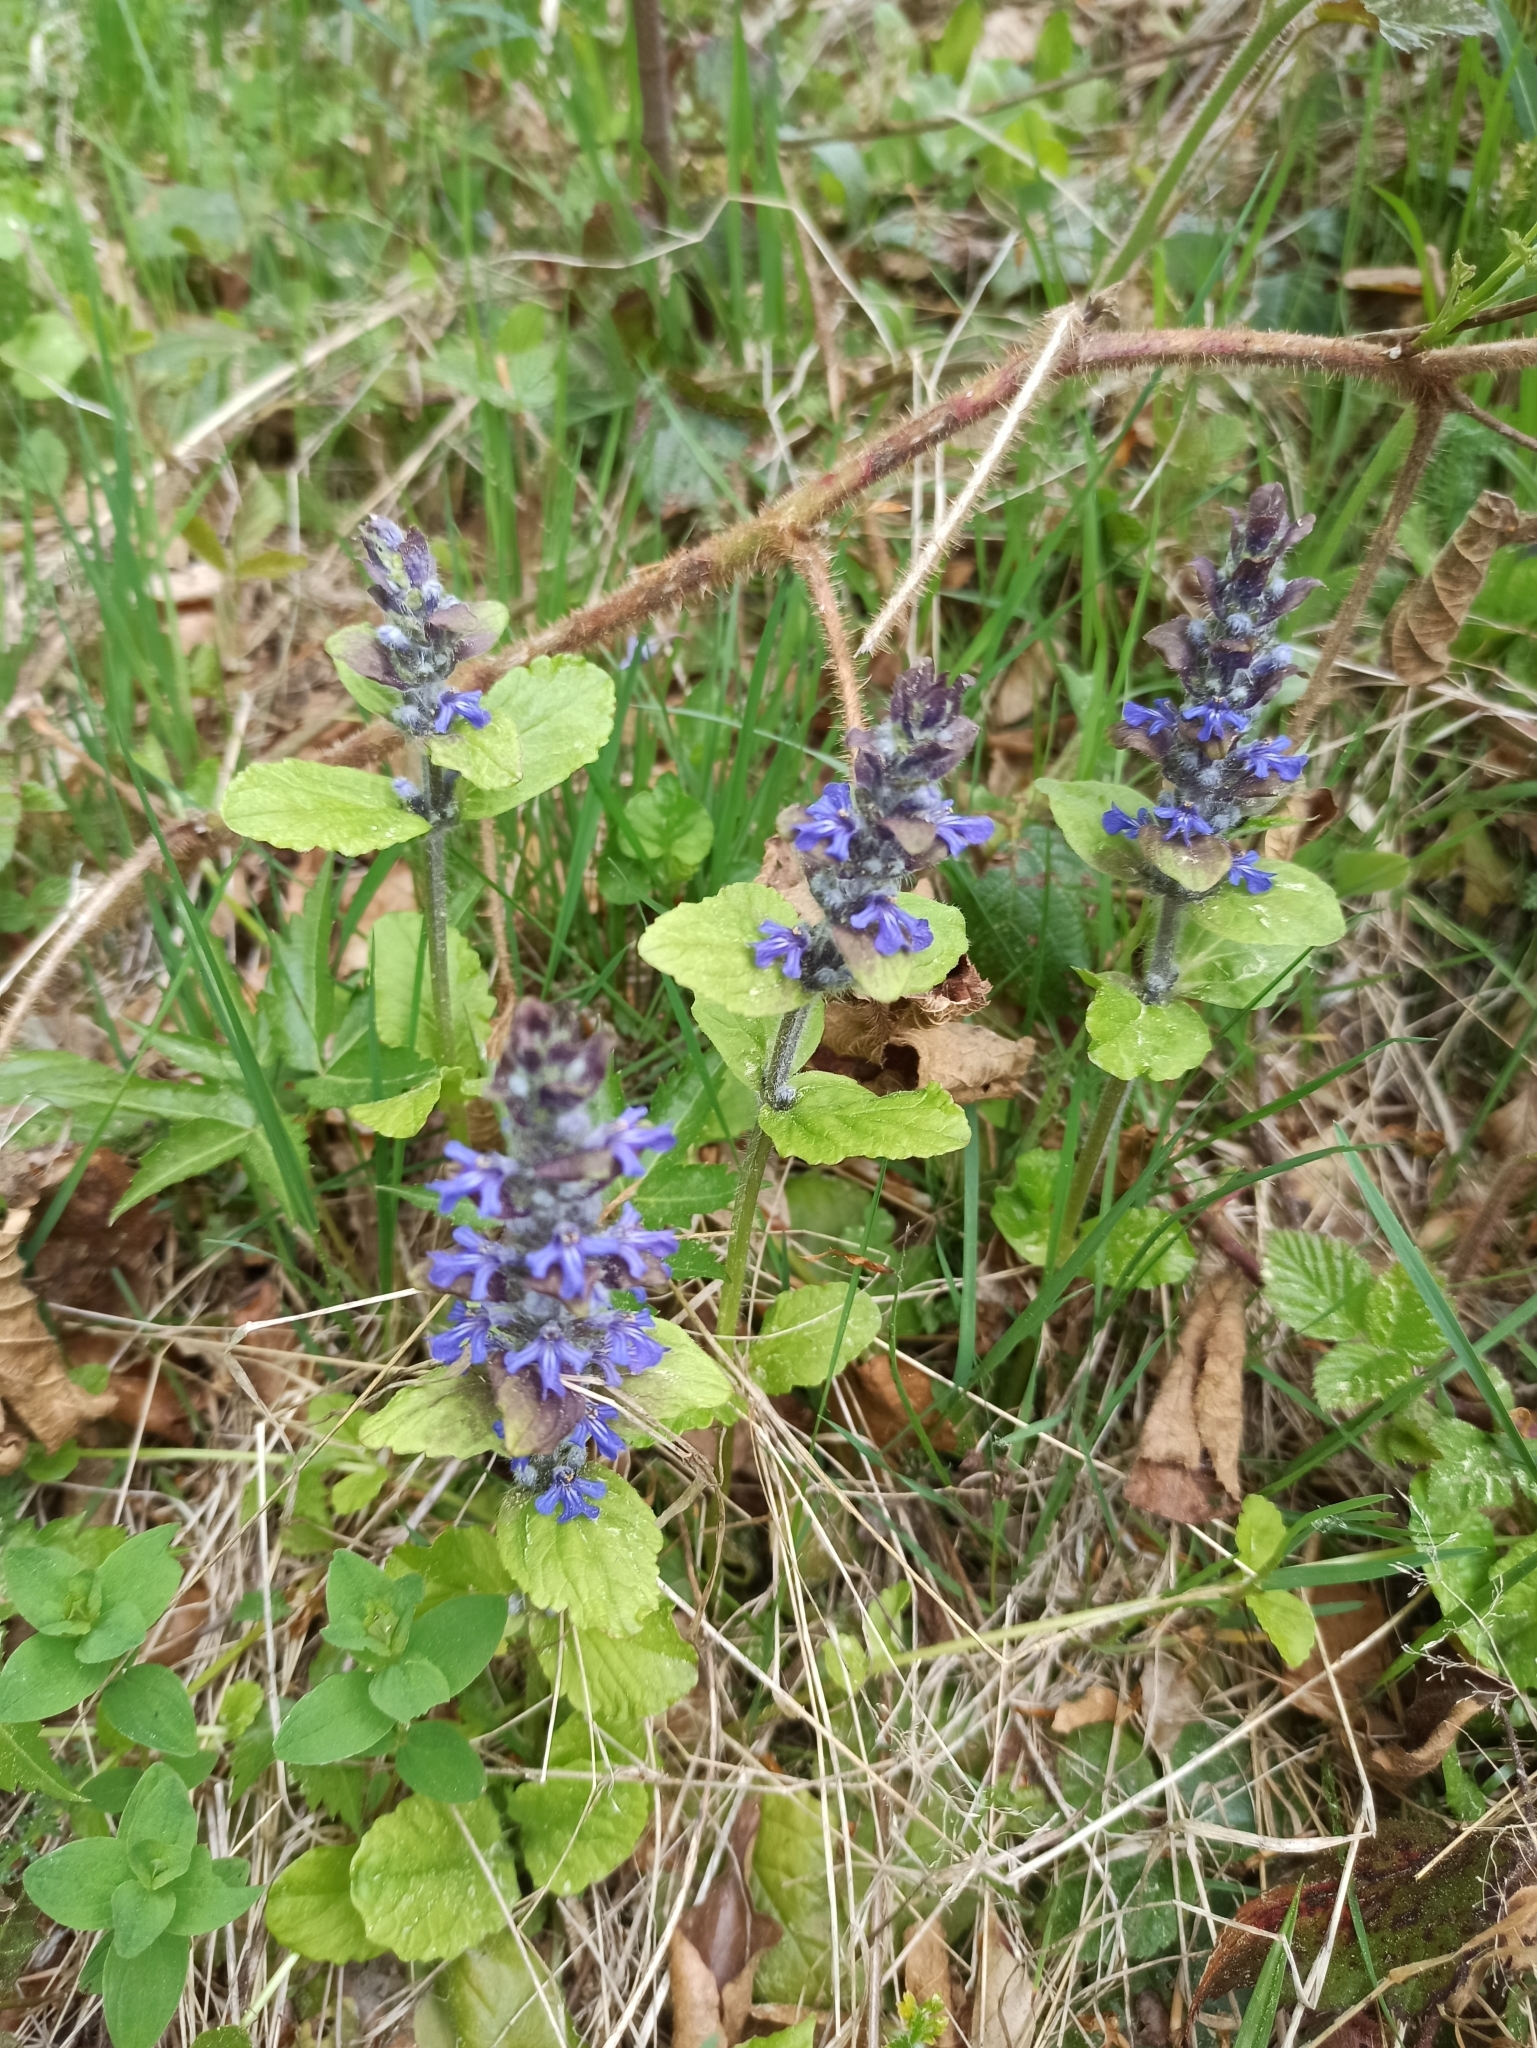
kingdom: Plantae
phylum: Tracheophyta
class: Magnoliopsida
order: Lamiales
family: Lamiaceae
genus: Ajuga
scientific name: Ajuga reptans
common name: Bugle
